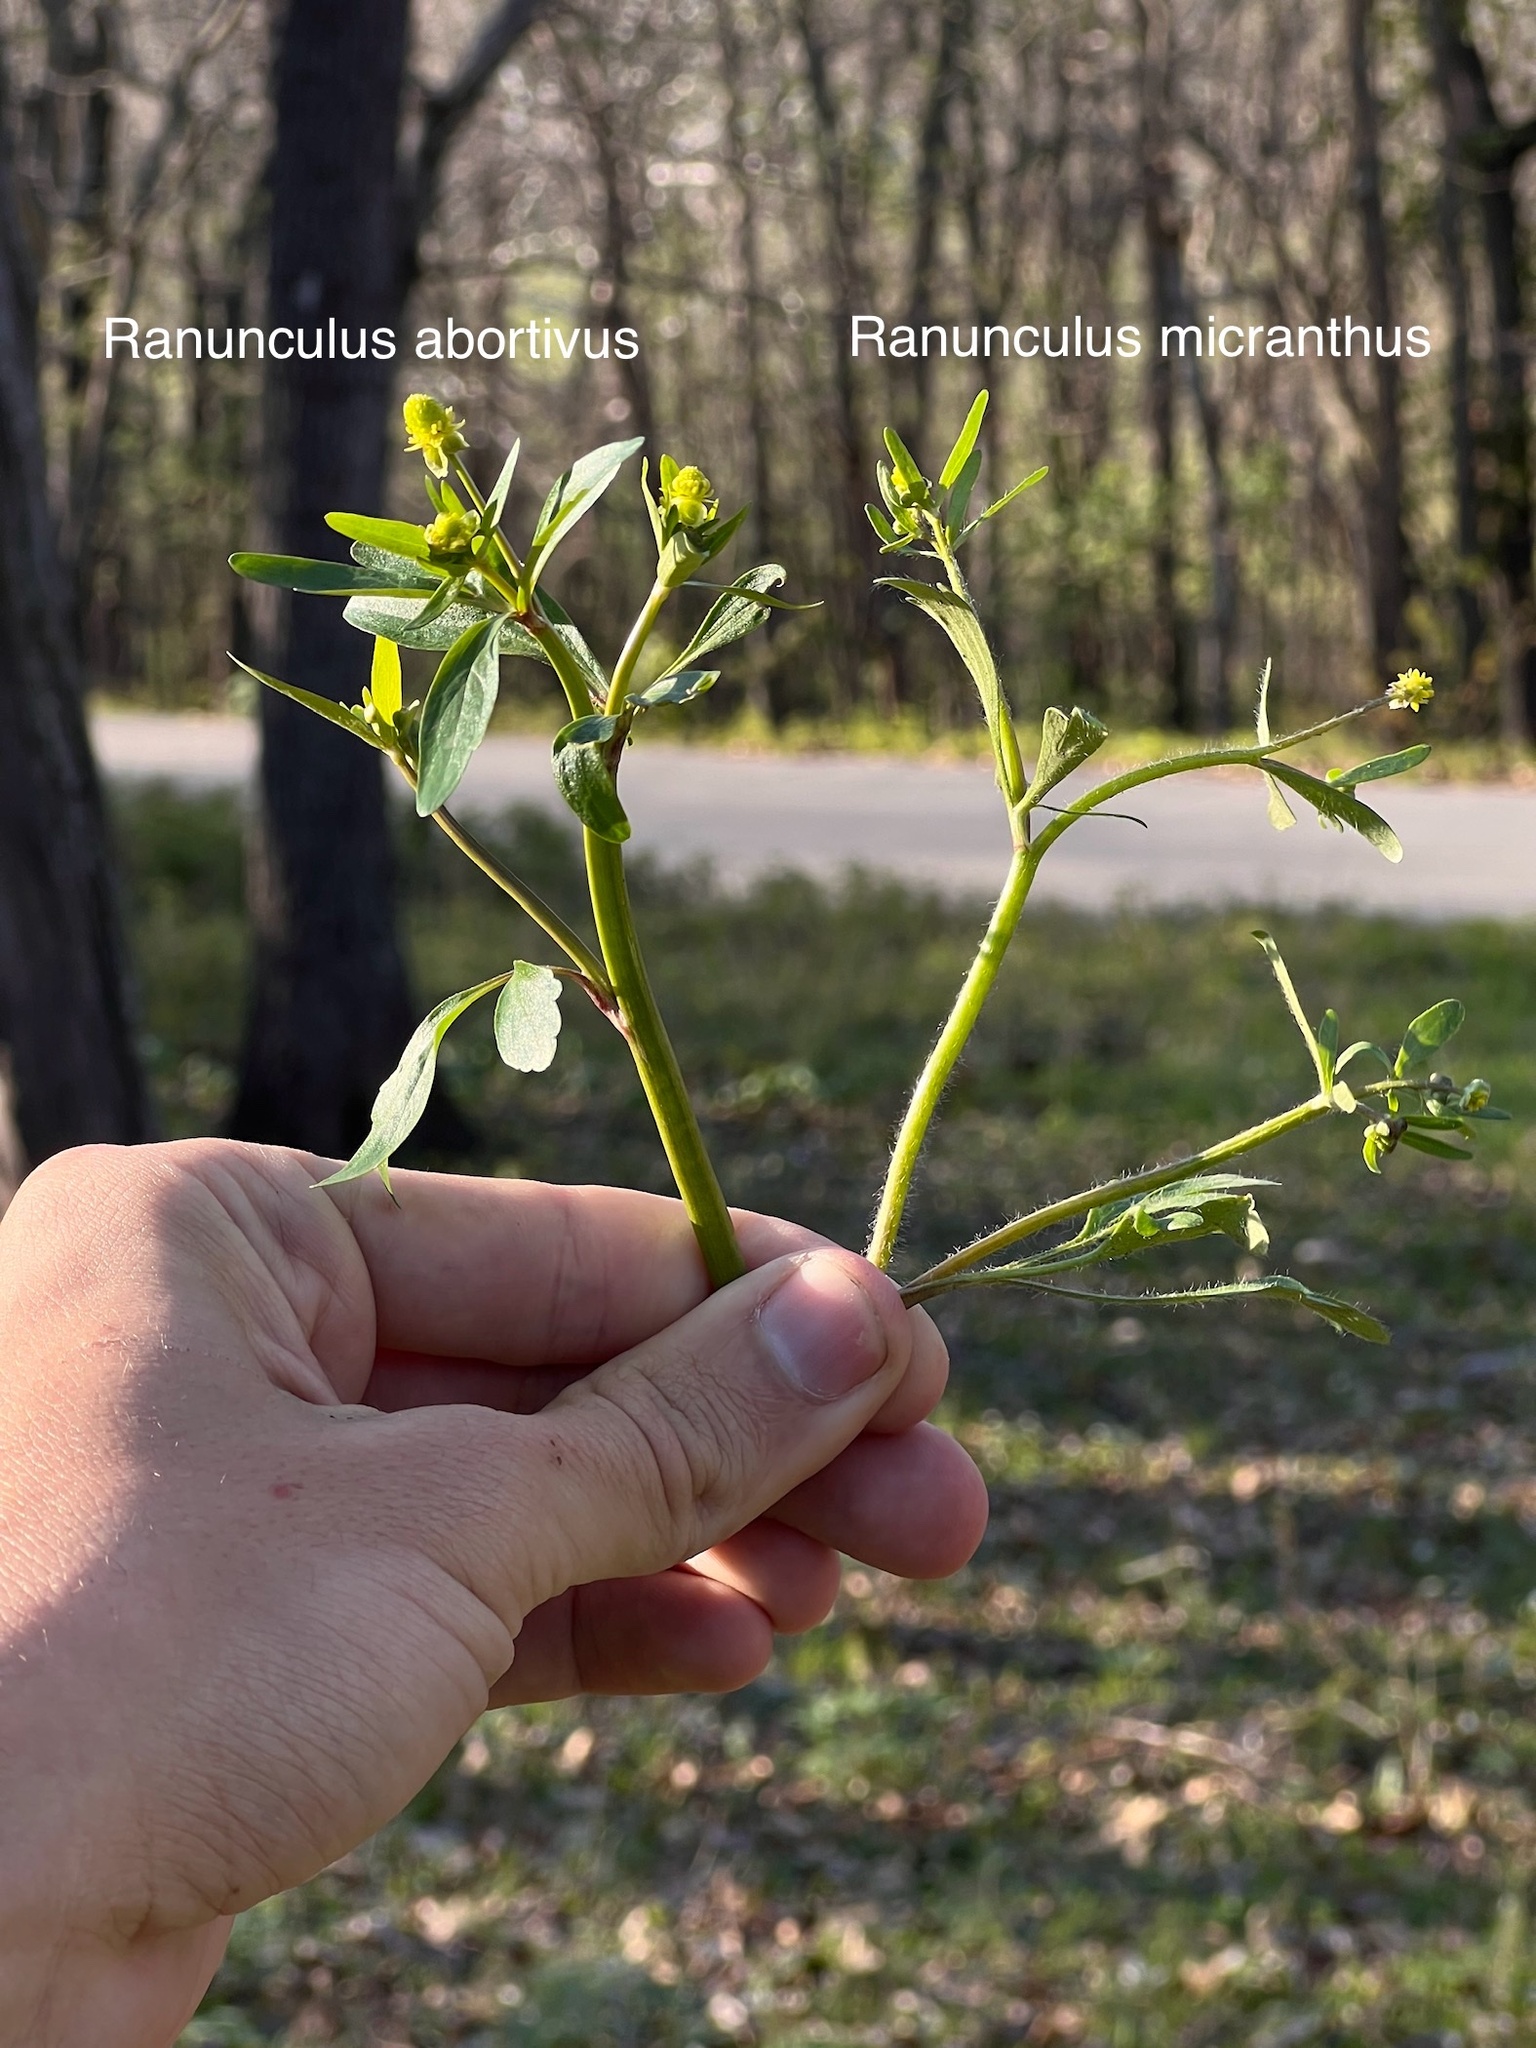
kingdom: Plantae
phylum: Tracheophyta
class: Magnoliopsida
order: Ranunculales
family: Ranunculaceae
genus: Ranunculus
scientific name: Ranunculus abortivus
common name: Early wood buttercup
